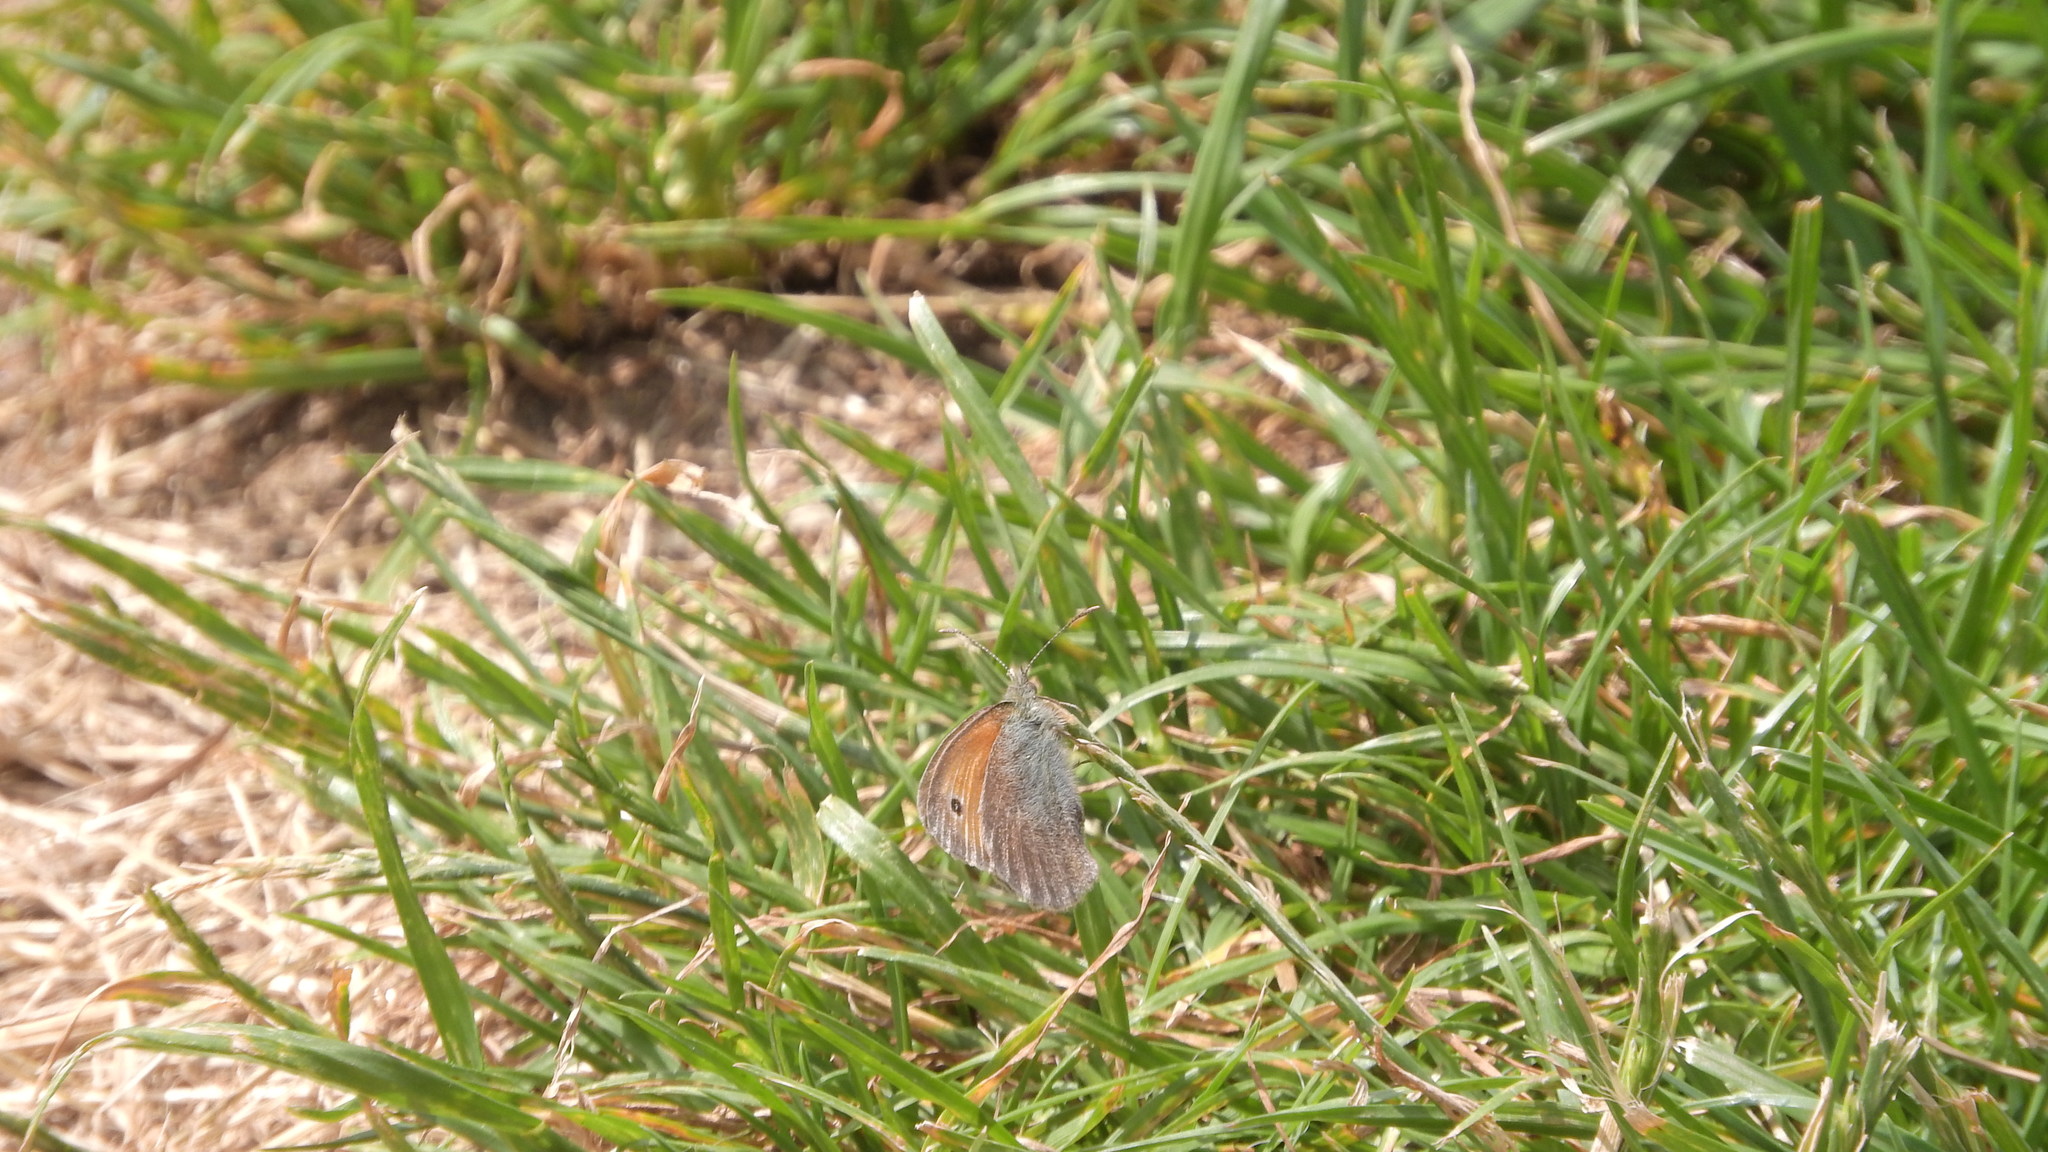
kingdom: Animalia
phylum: Arthropoda
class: Insecta
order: Lepidoptera
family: Nymphalidae
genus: Coenonympha
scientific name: Coenonympha pamphilus
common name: Small heath
